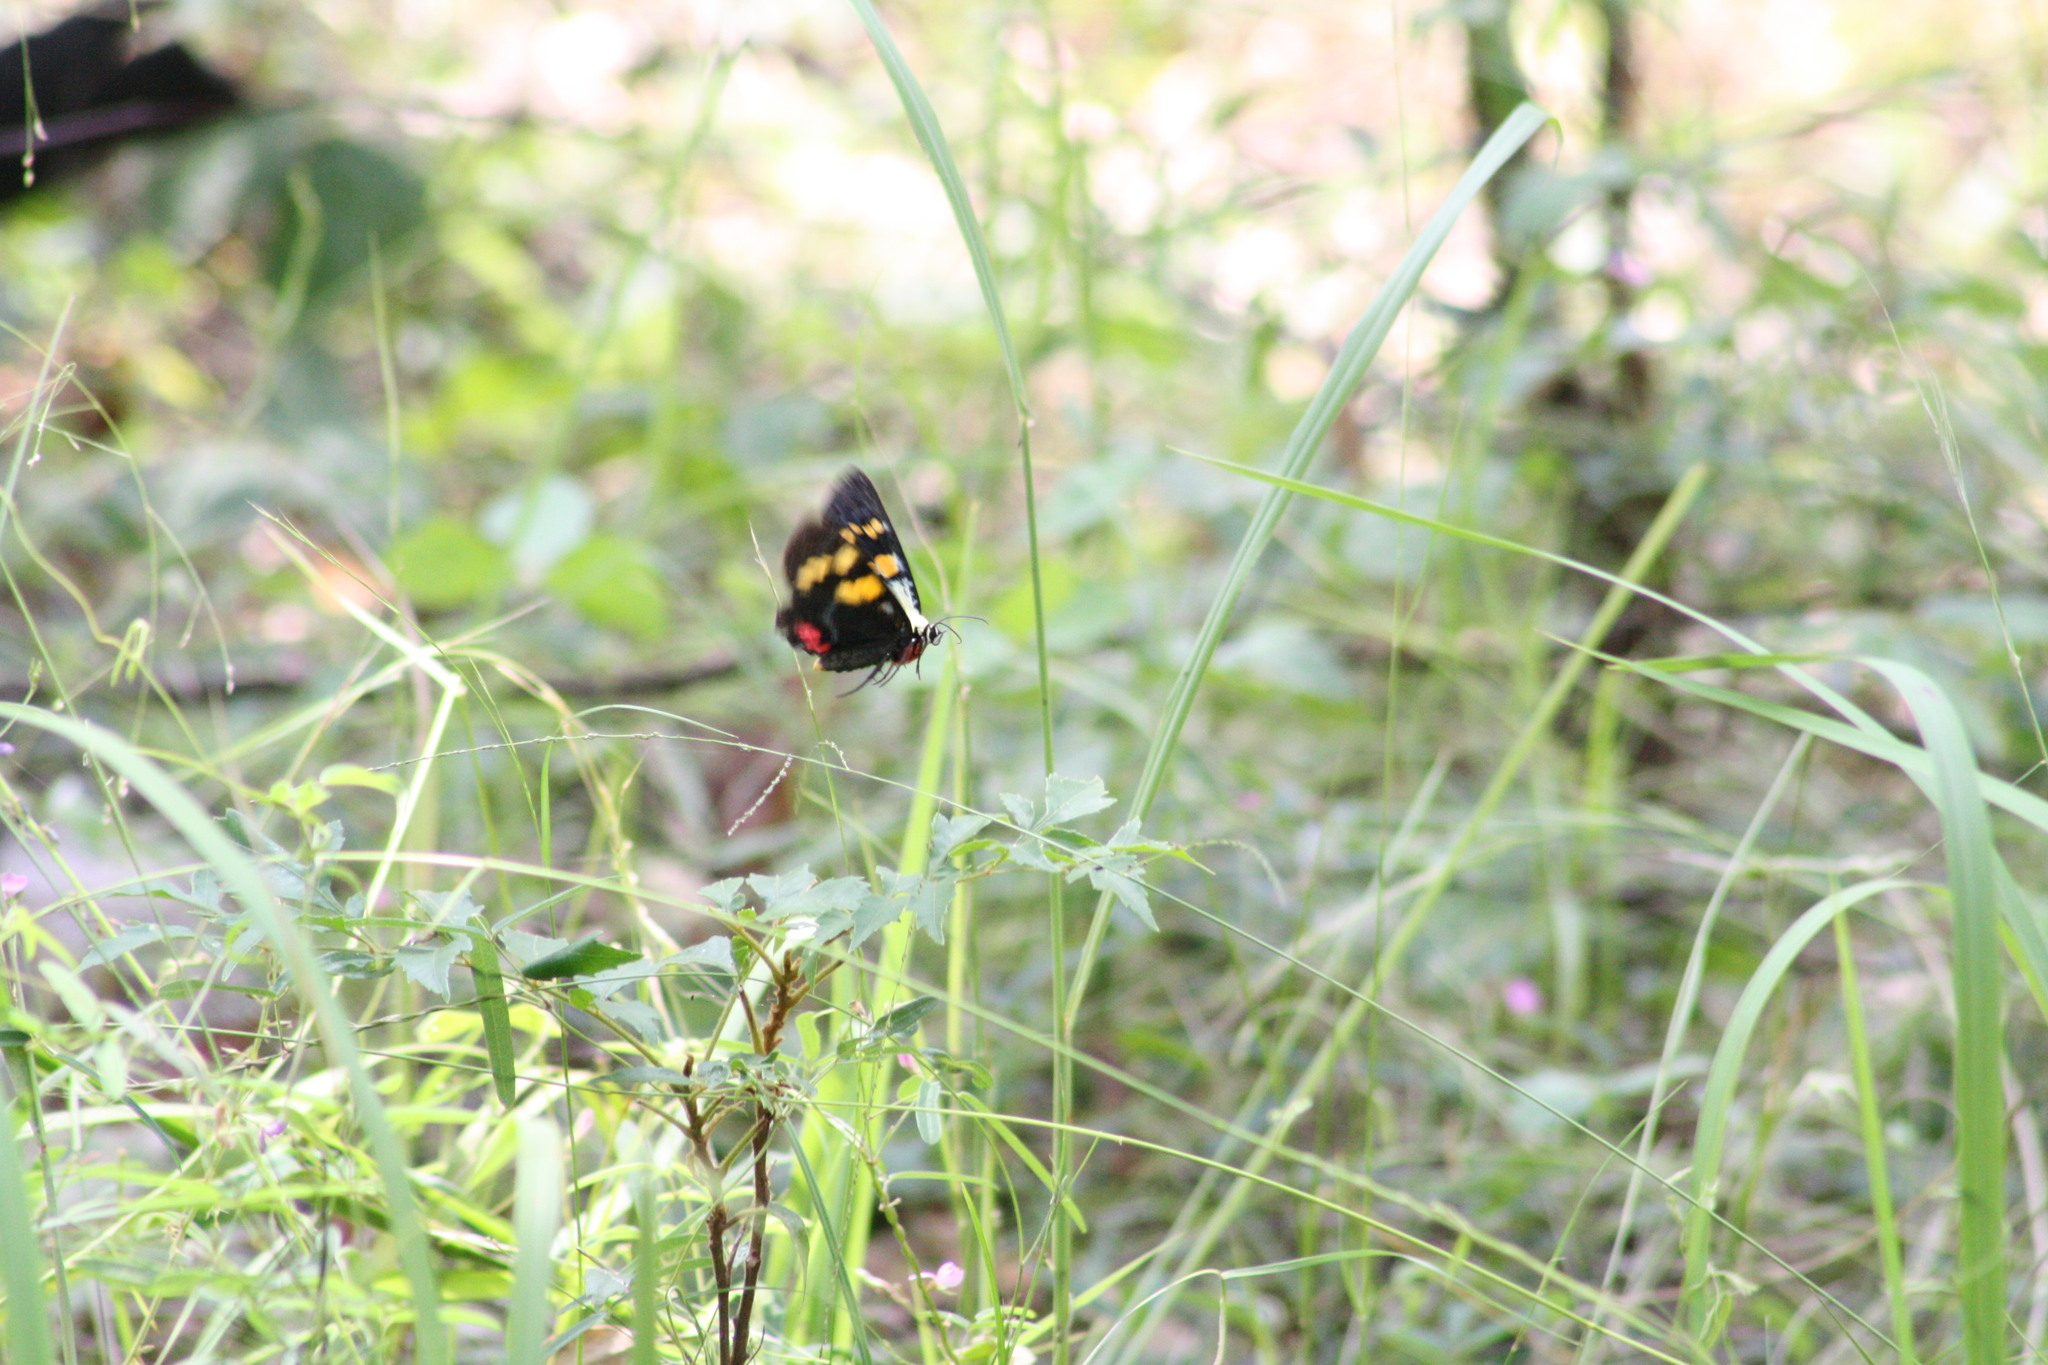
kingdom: Animalia
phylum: Arthropoda
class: Insecta
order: Lepidoptera
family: Noctuidae
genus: Agarista
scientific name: Agarista agricola
